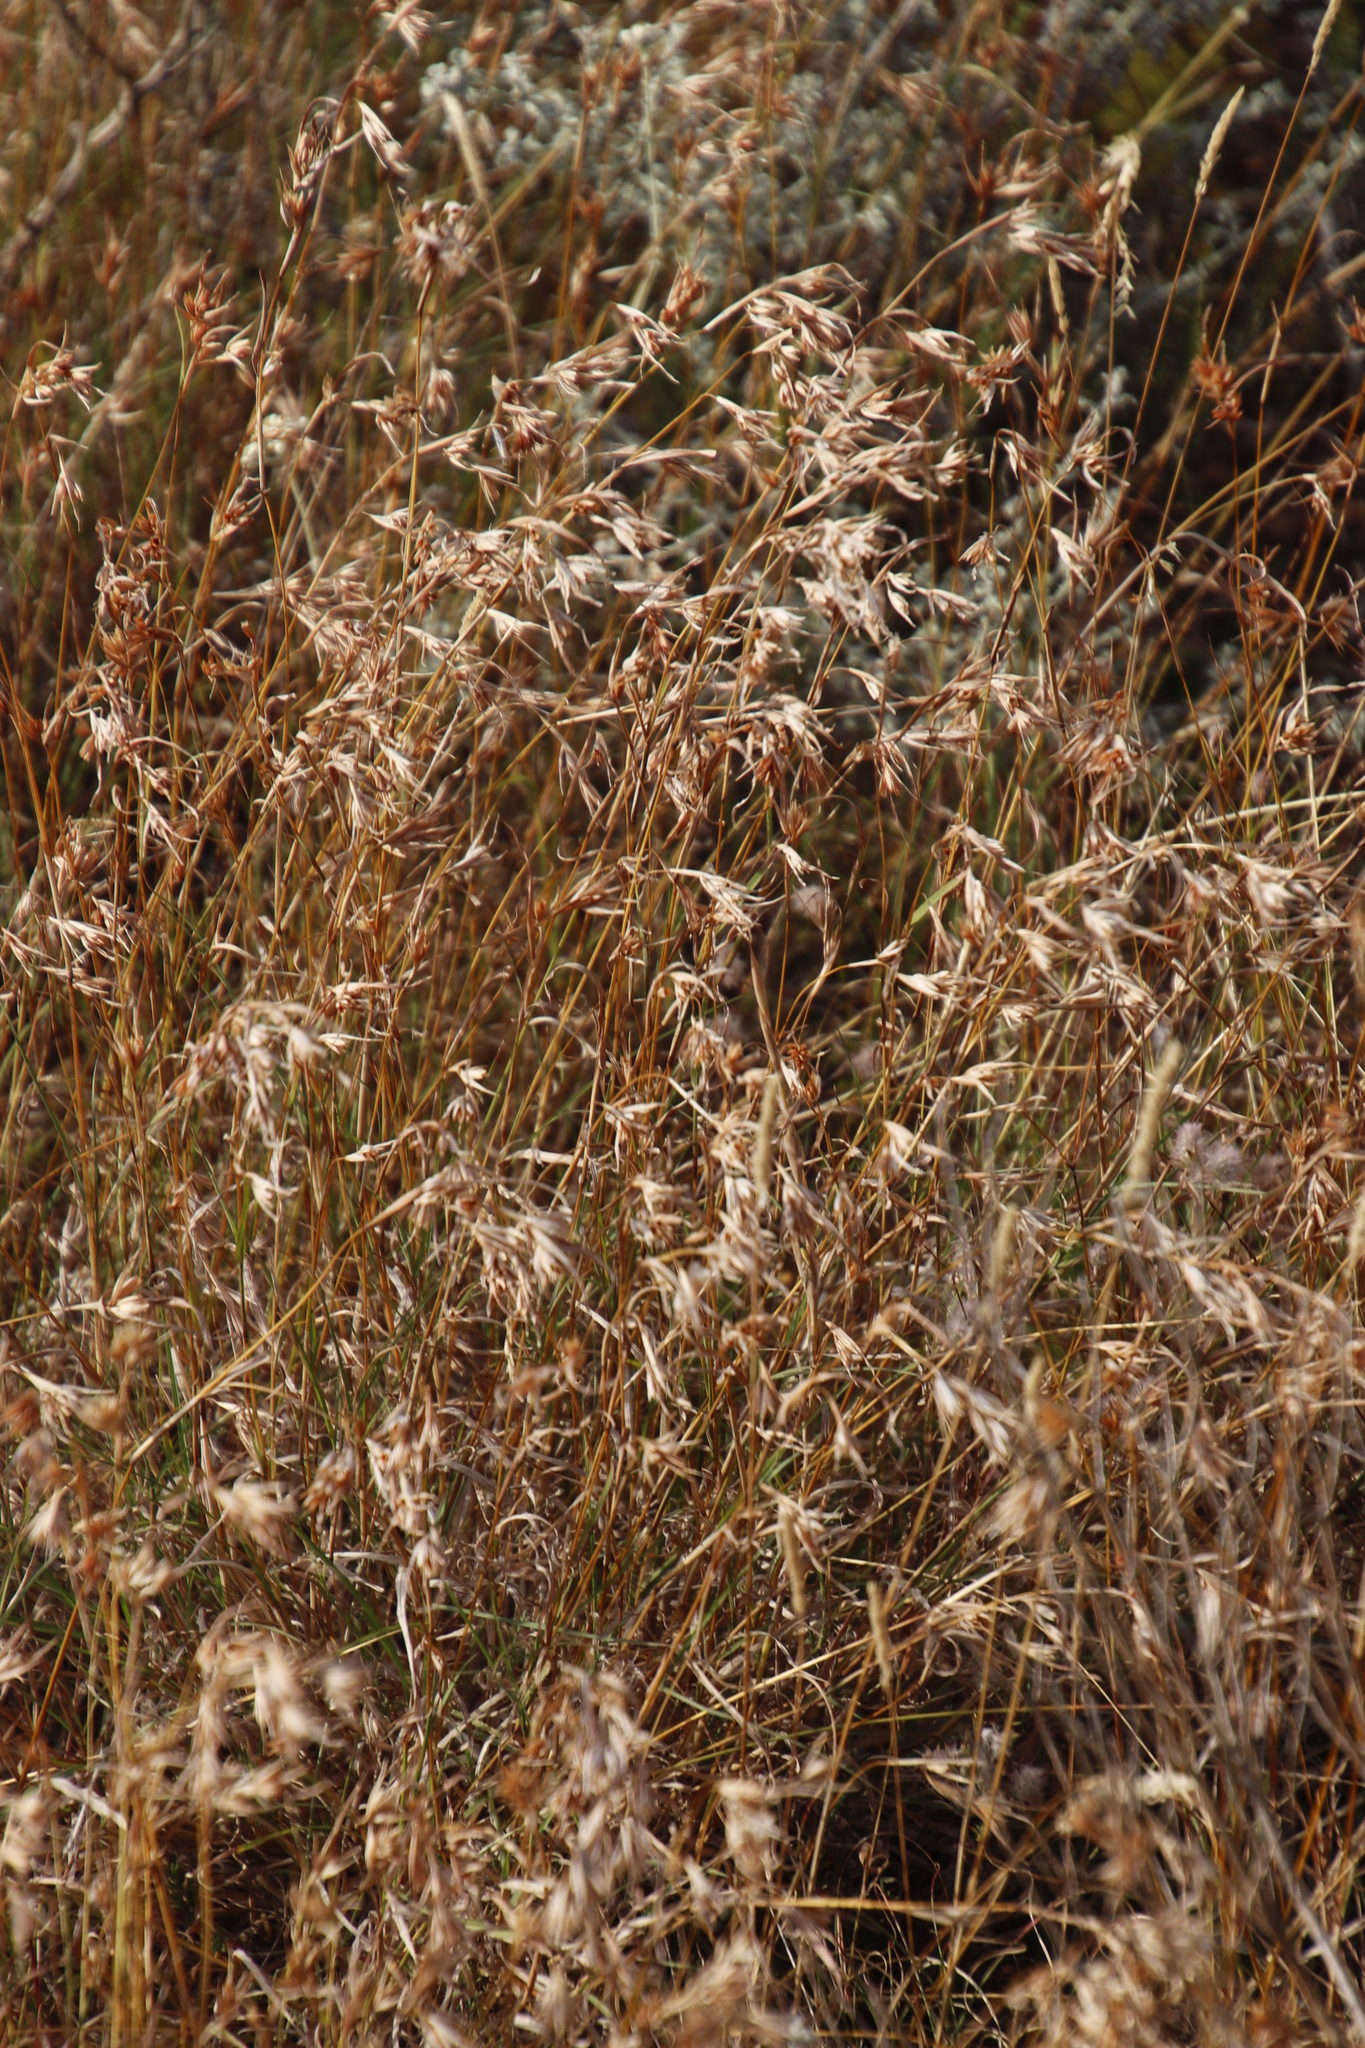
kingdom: Plantae
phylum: Tracheophyta
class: Liliopsida
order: Poales
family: Poaceae
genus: Themeda
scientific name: Themeda triandra
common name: Kangaroo grass
